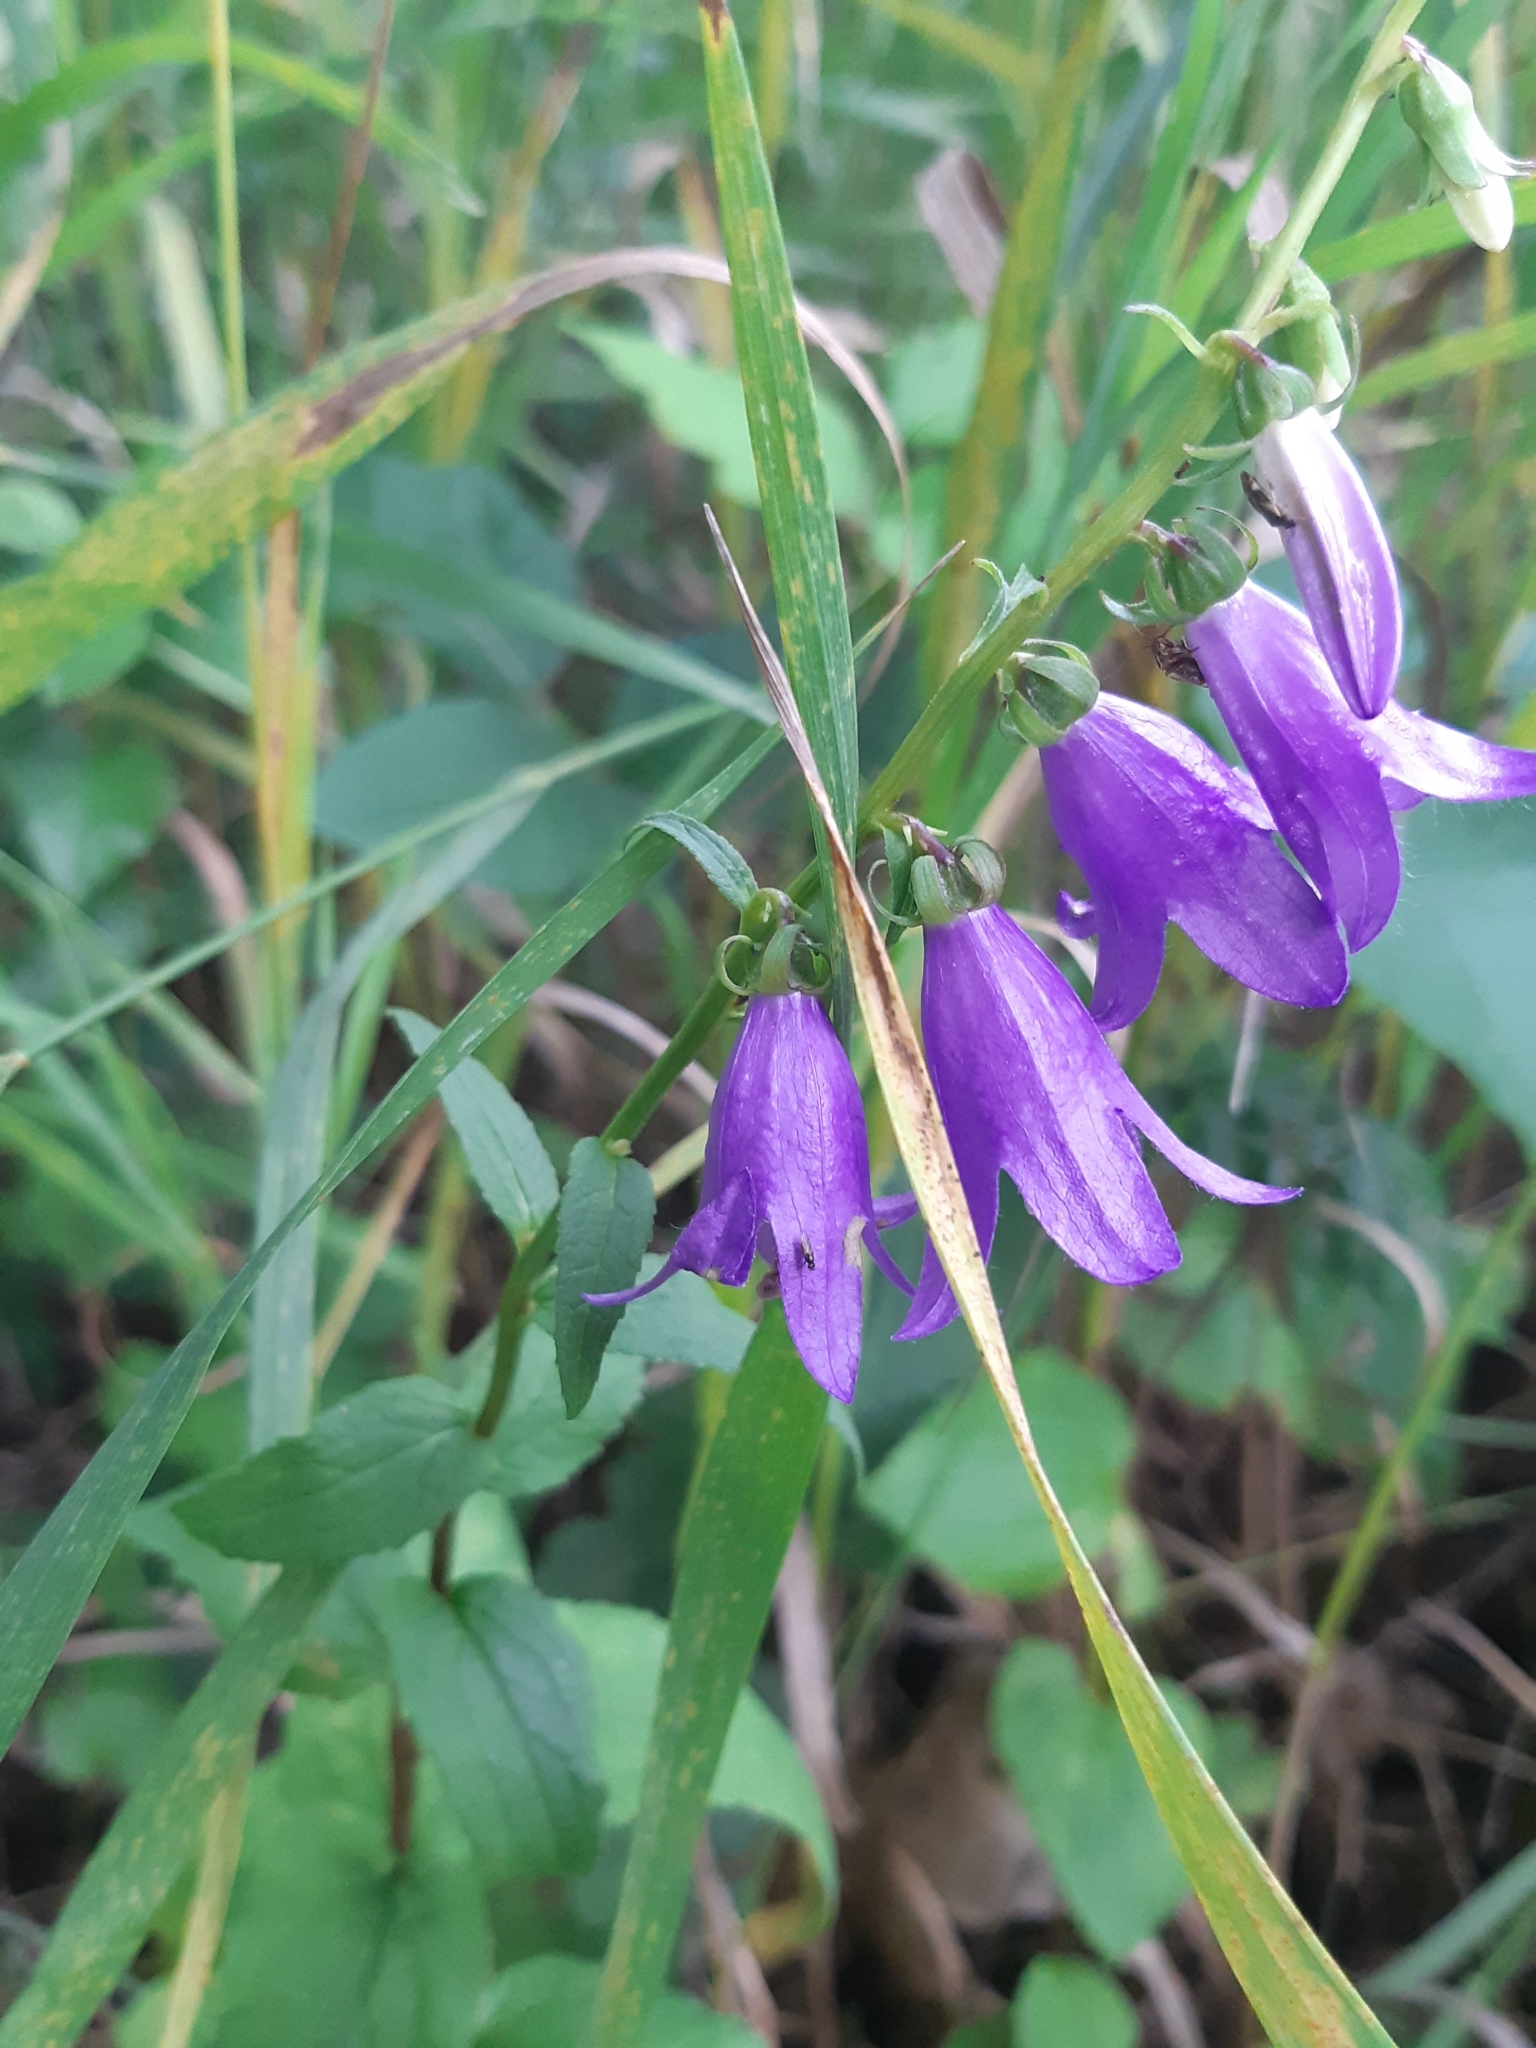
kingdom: Plantae
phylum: Tracheophyta
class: Magnoliopsida
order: Asterales
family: Campanulaceae
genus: Campanula
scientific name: Campanula rapunculoides
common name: Creeping bellflower
